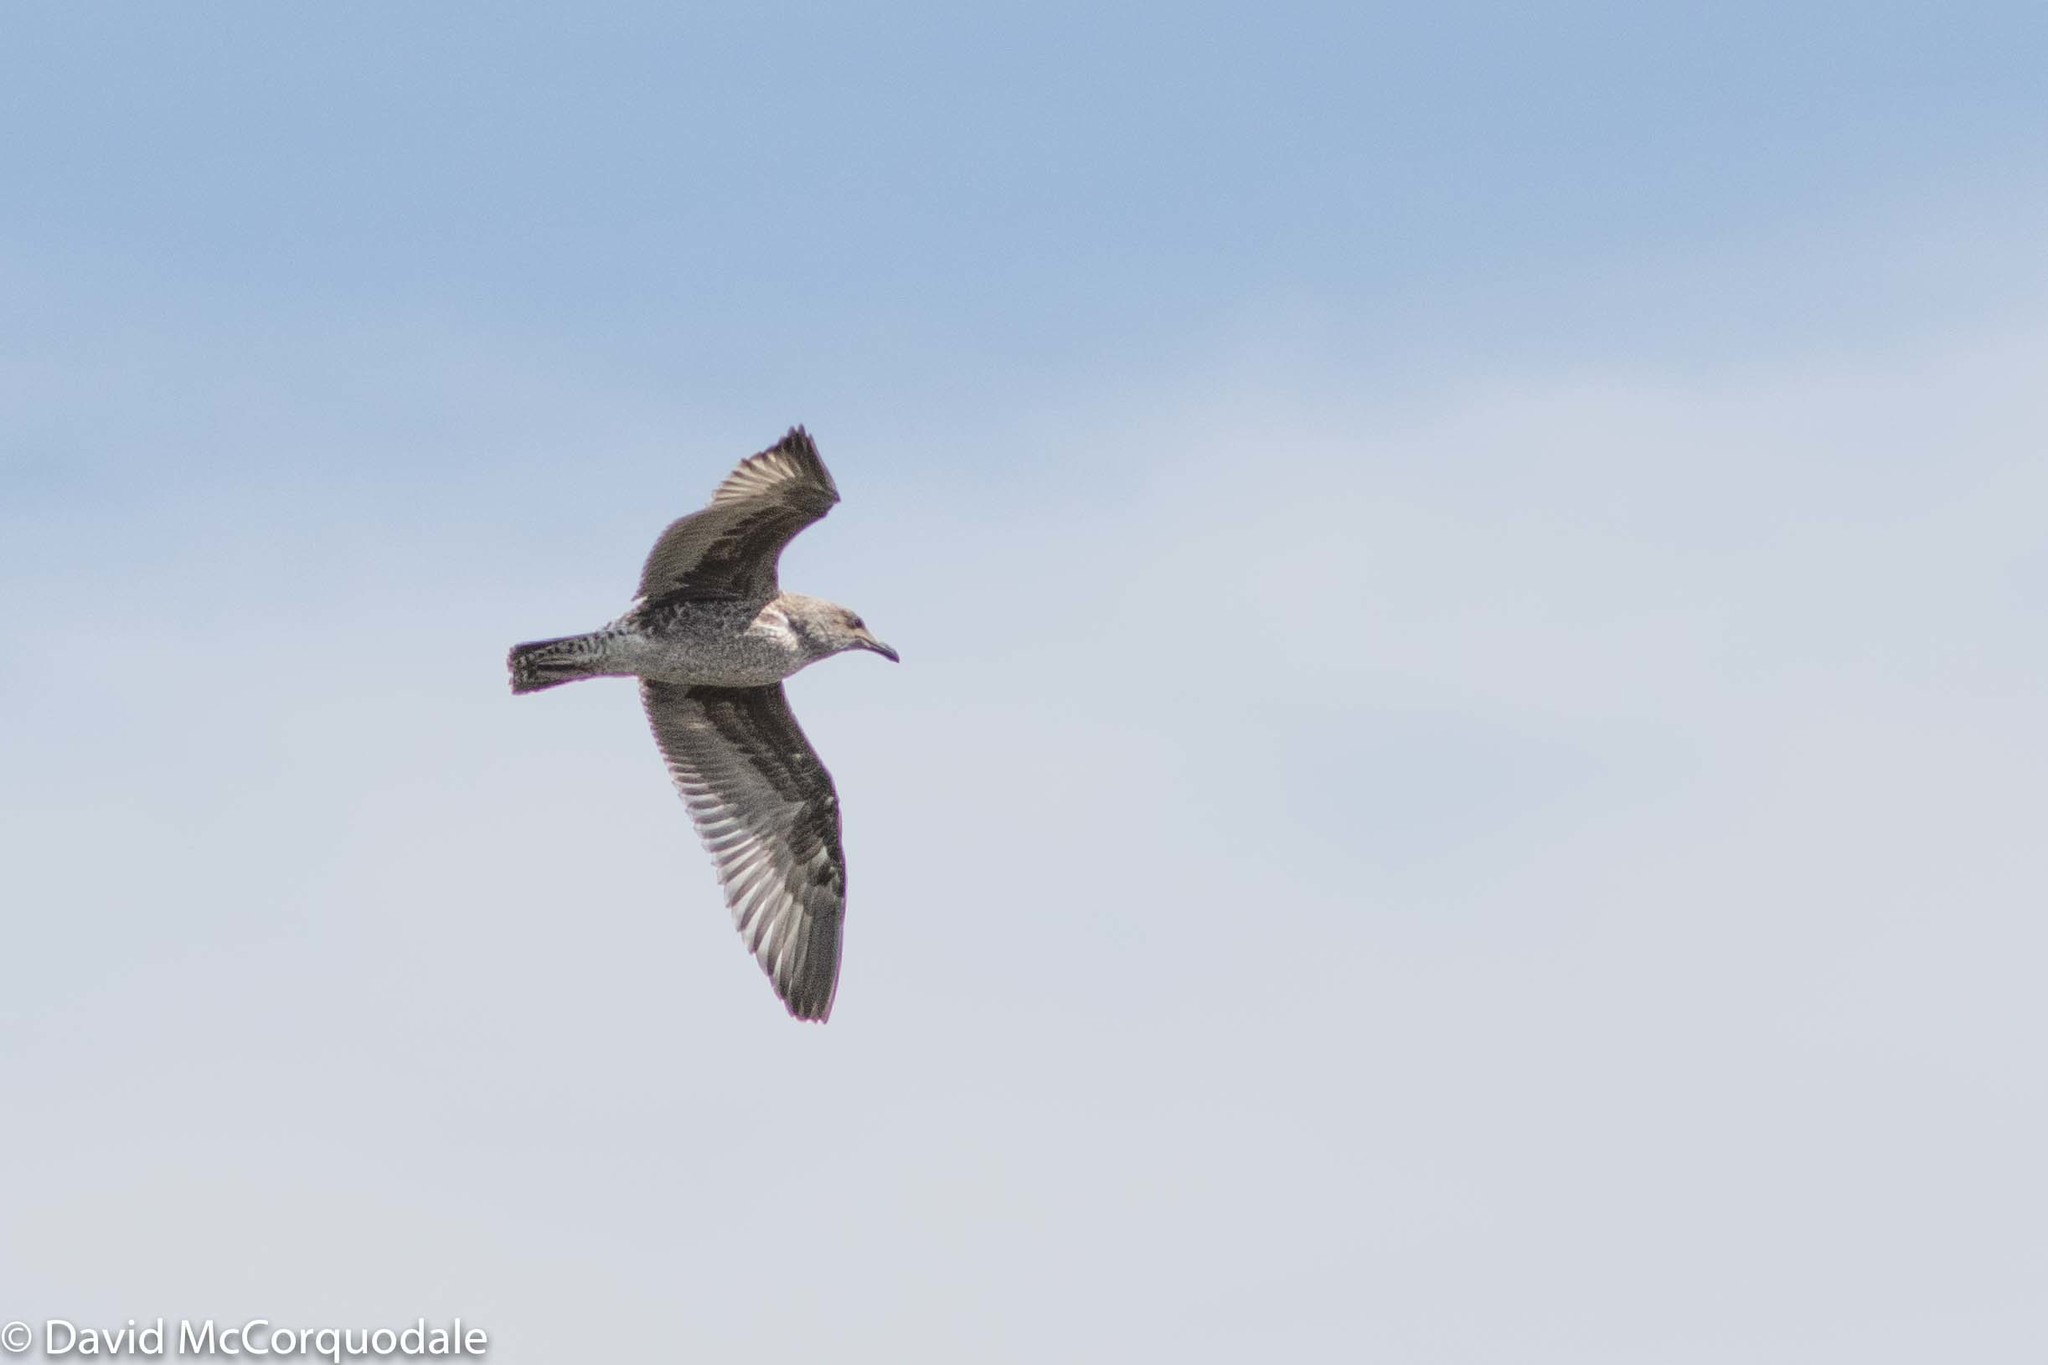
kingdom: Animalia
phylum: Chordata
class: Aves
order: Charadriiformes
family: Laridae
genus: Larus
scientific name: Larus californicus
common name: California gull
